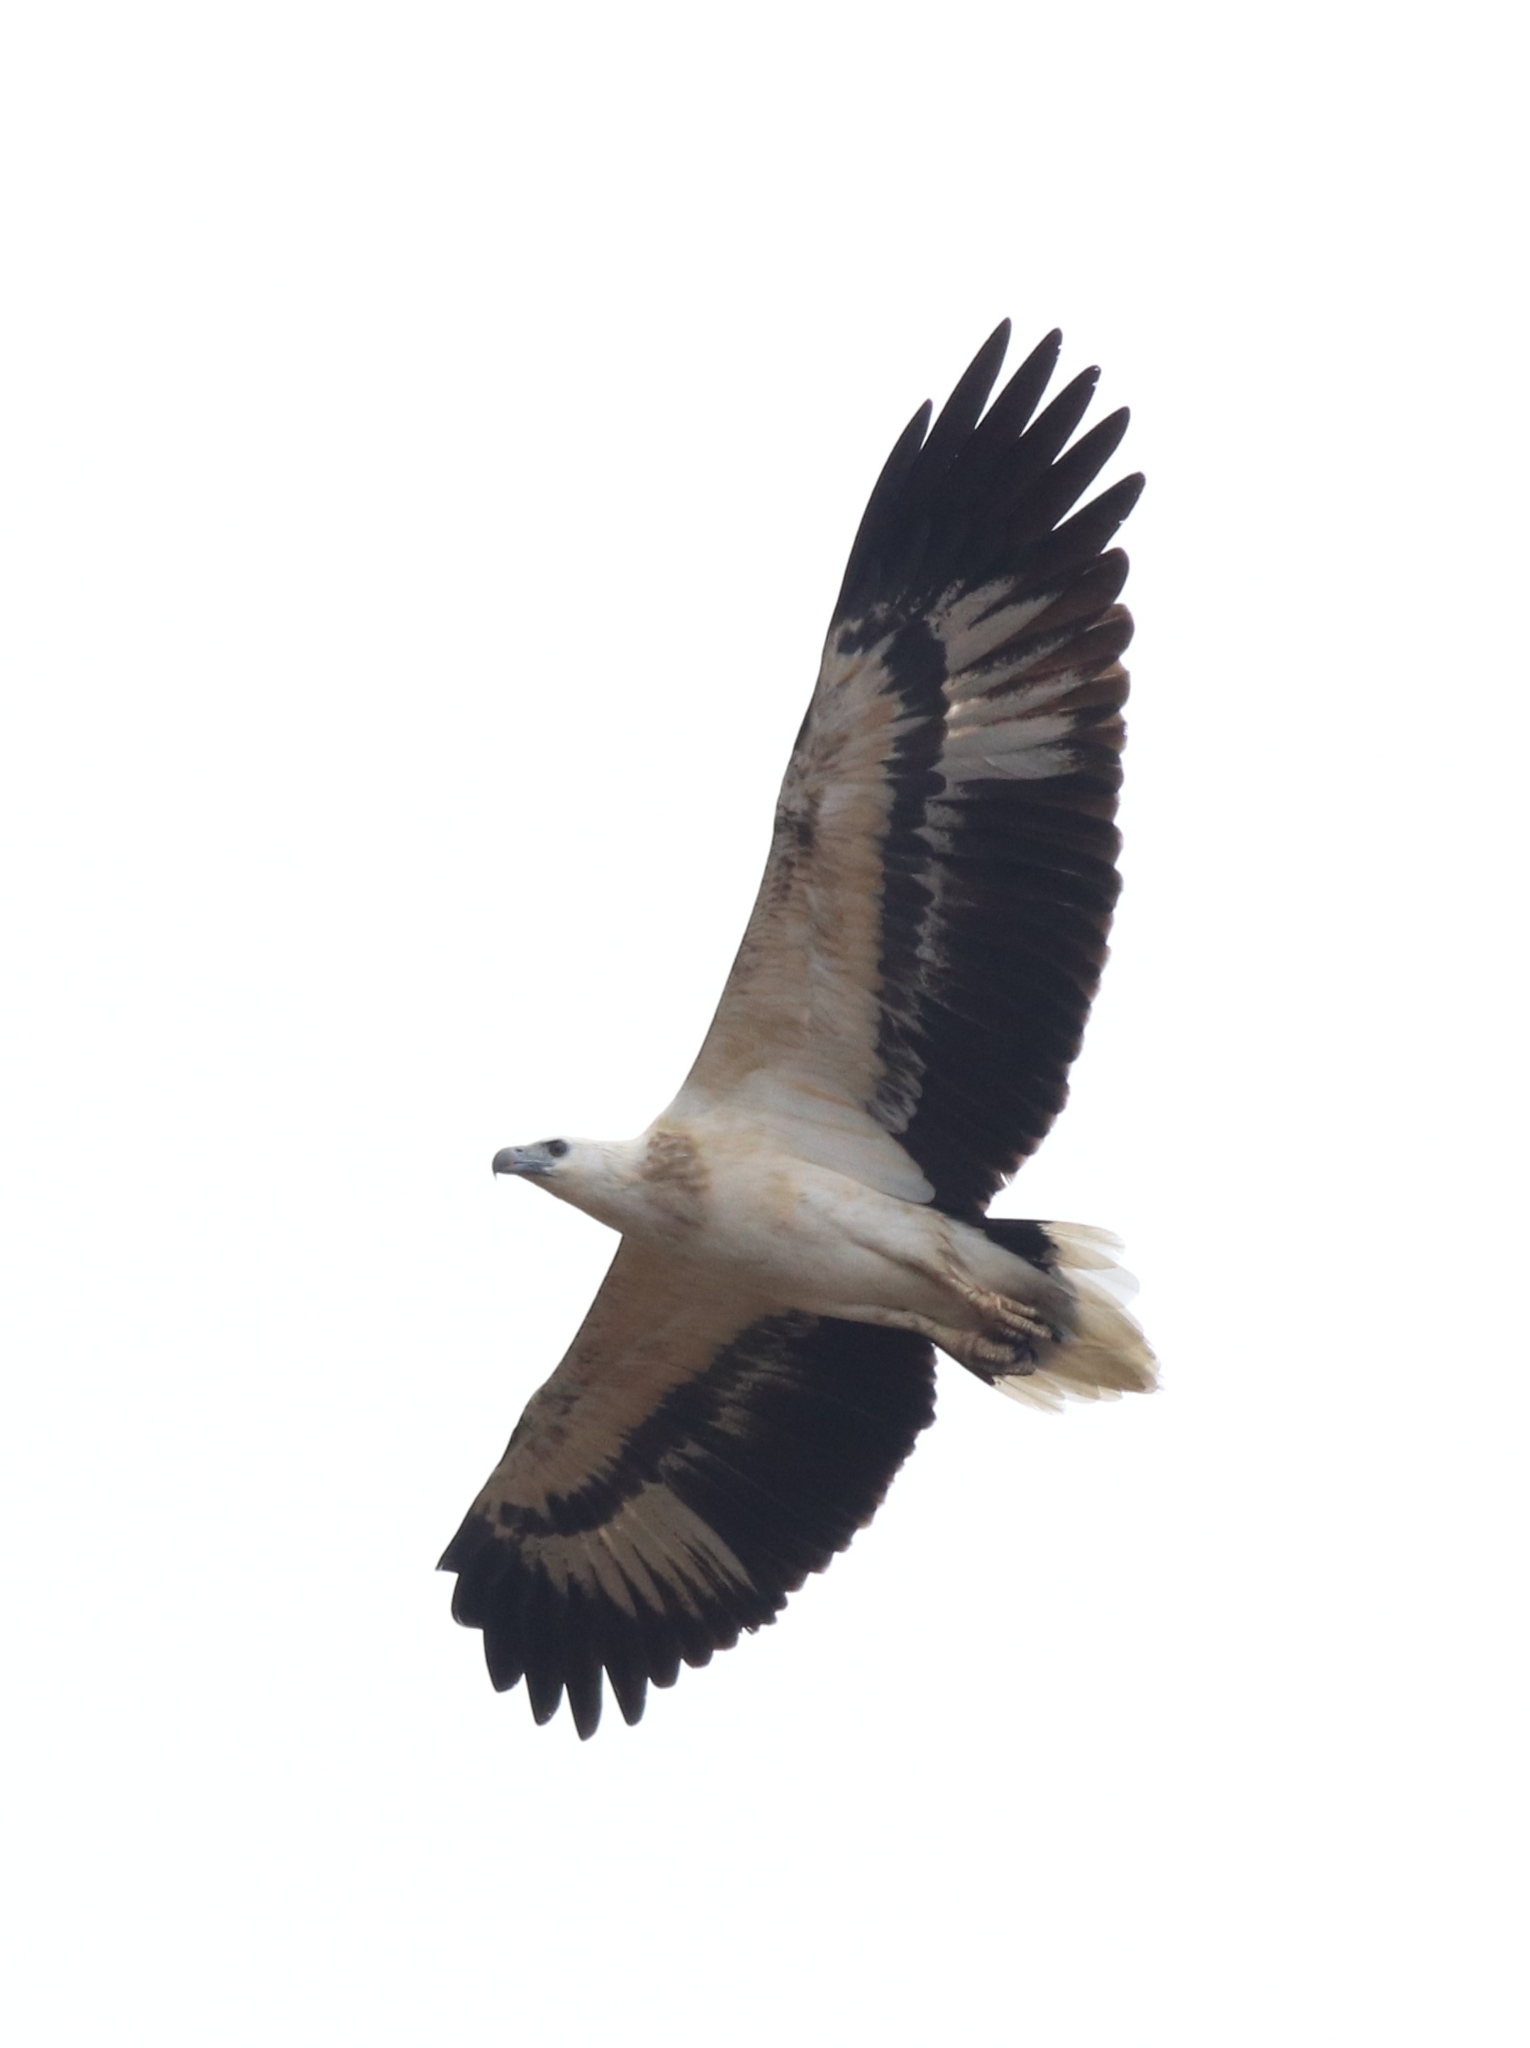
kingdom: Animalia
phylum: Chordata
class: Aves
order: Accipitriformes
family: Accipitridae
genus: Haliaeetus
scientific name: Haliaeetus leucogaster
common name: White-bellied sea eagle
